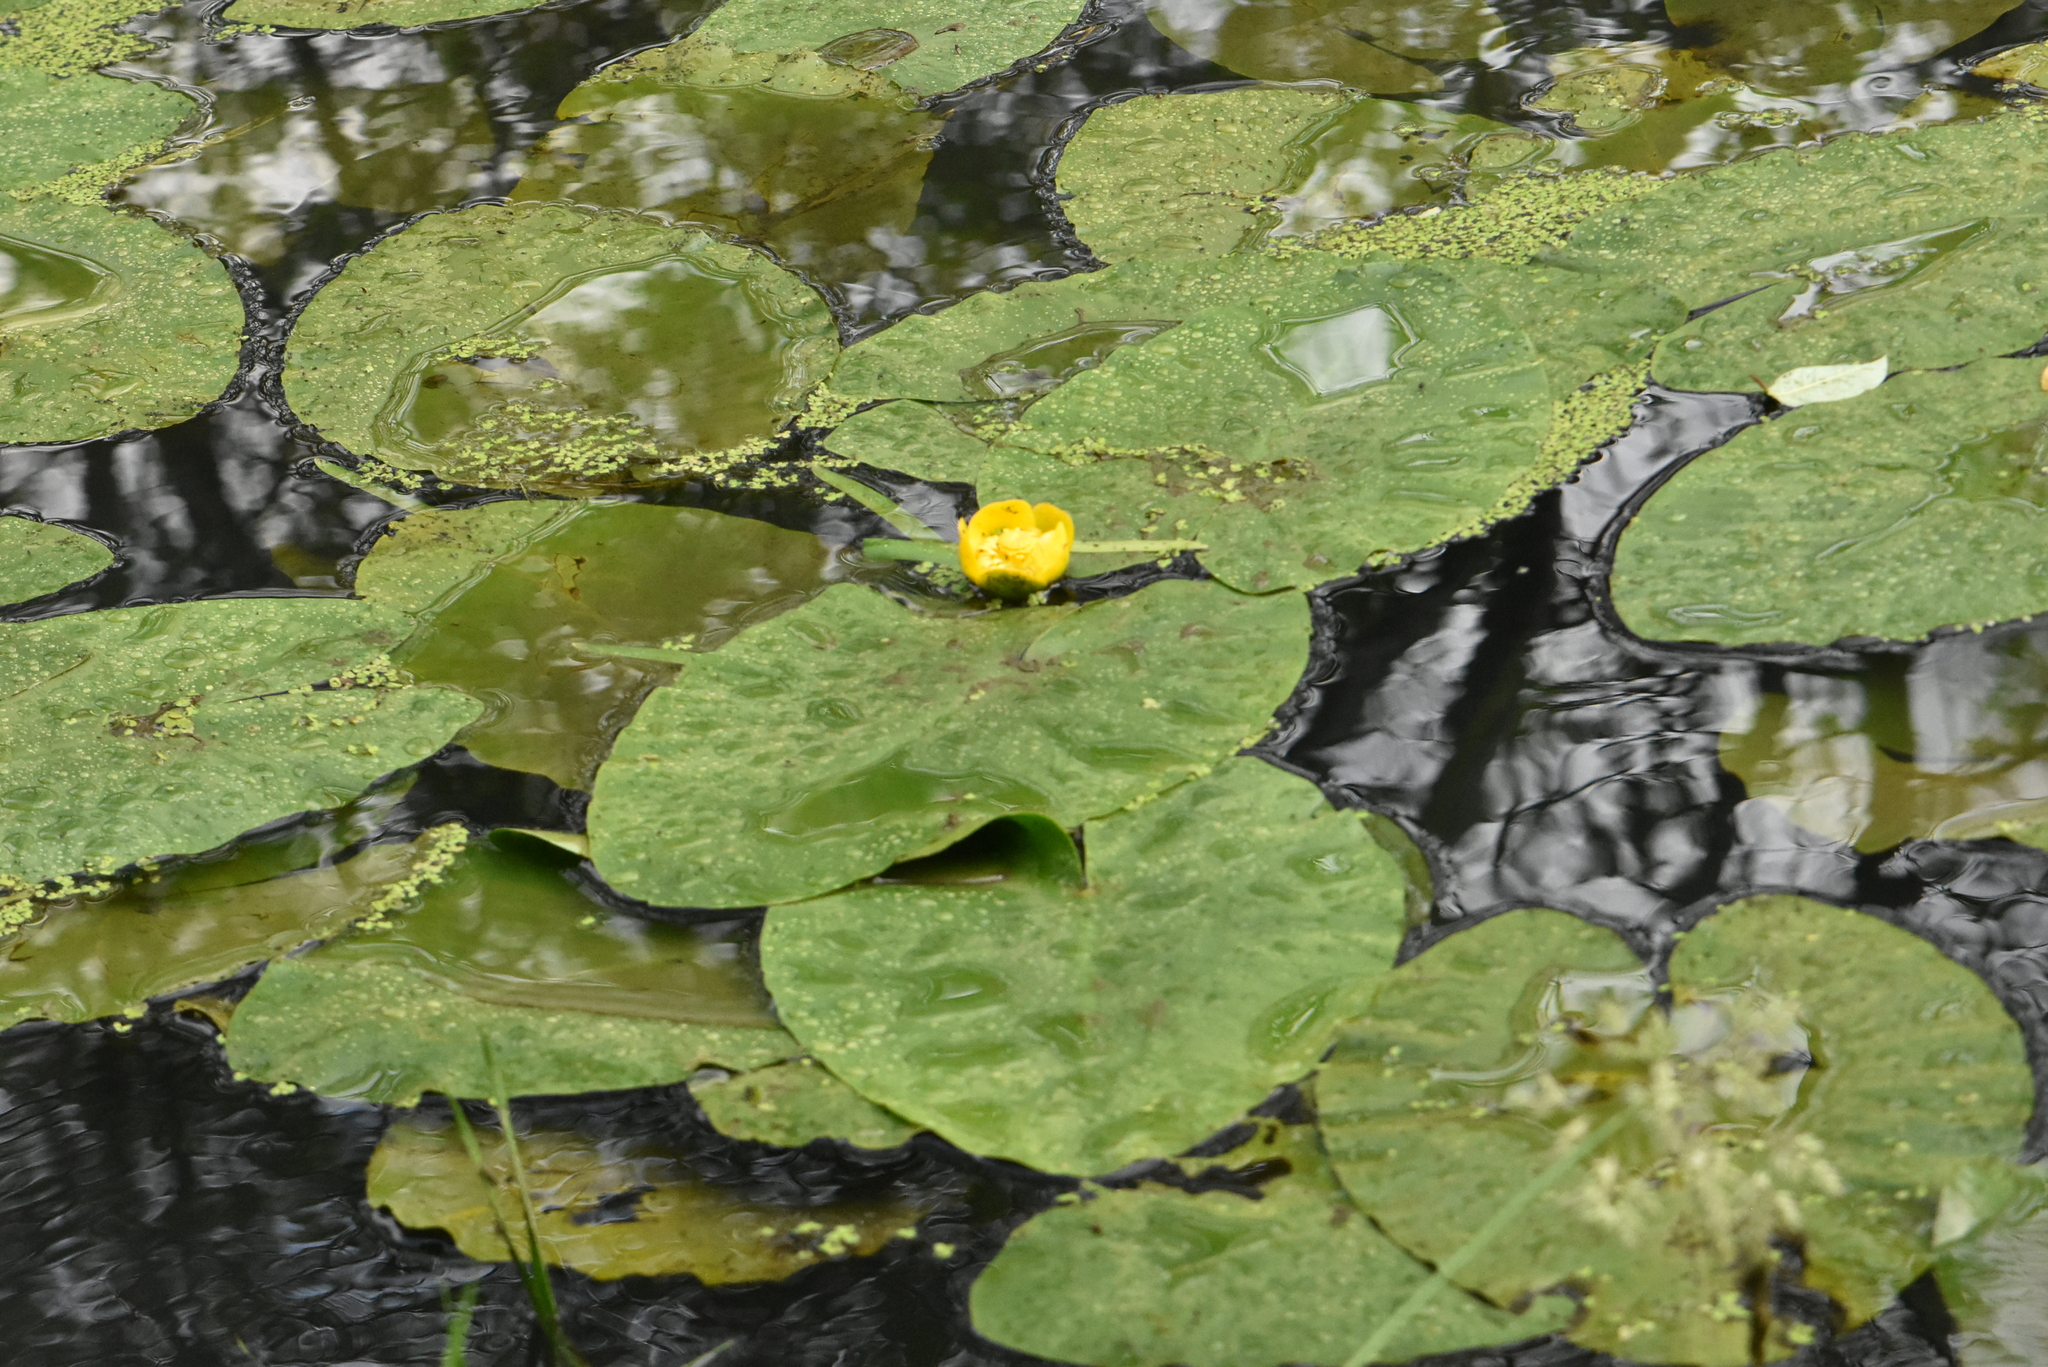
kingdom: Plantae
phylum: Tracheophyta
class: Magnoliopsida
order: Nymphaeales
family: Nymphaeaceae
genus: Nuphar
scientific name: Nuphar lutea
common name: Yellow water-lily
